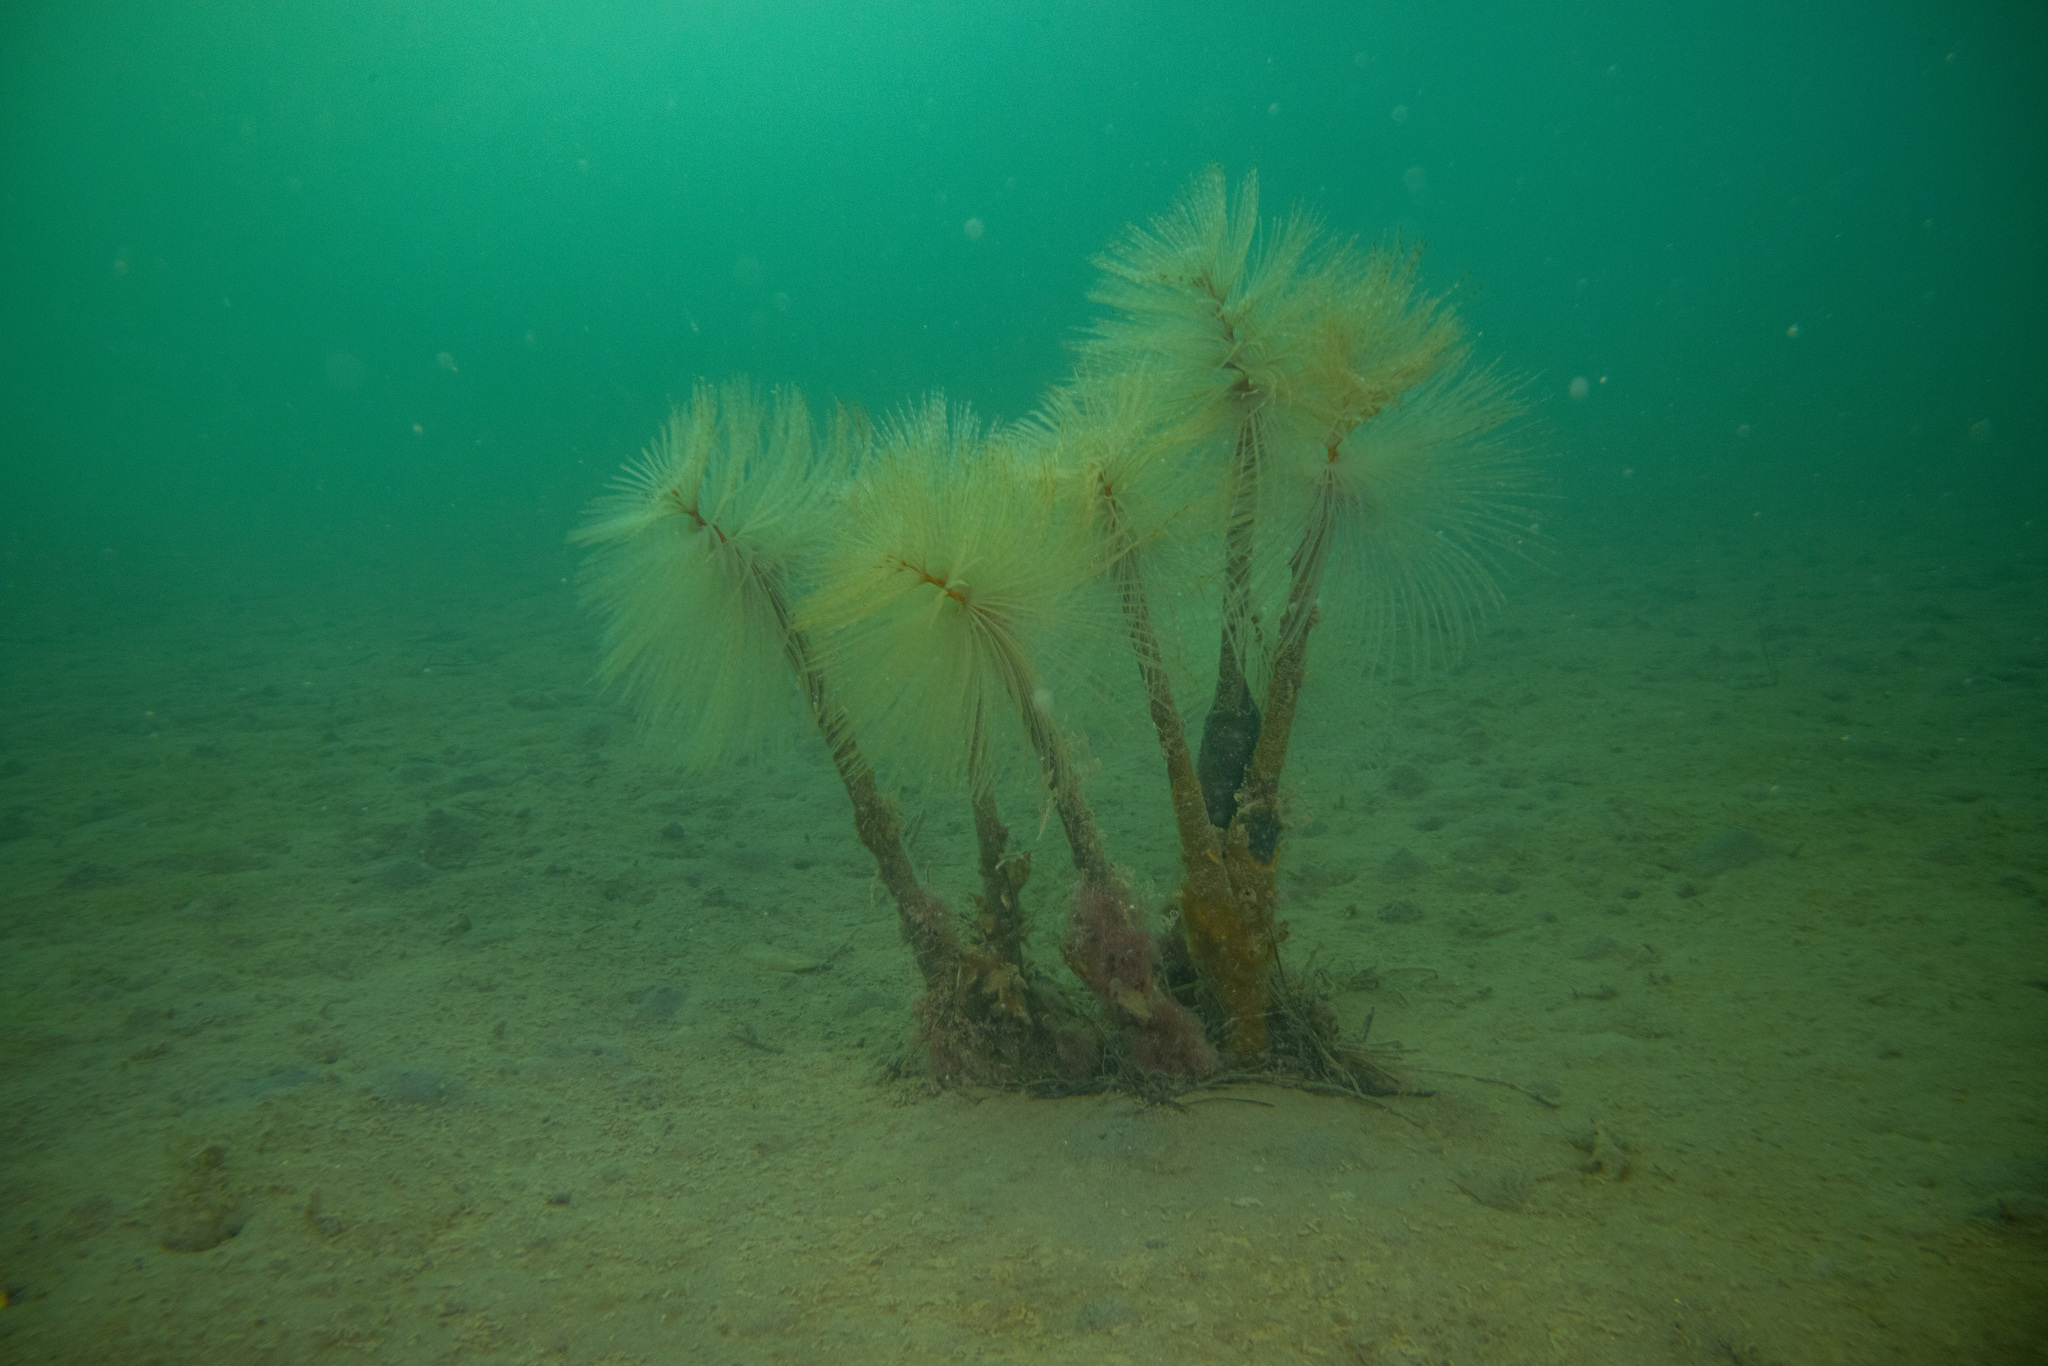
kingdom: Animalia
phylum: Annelida
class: Polychaeta
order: Sabellida
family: Sabellidae
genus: Sabella
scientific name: Sabella spallanzanii
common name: Feather duster worm
